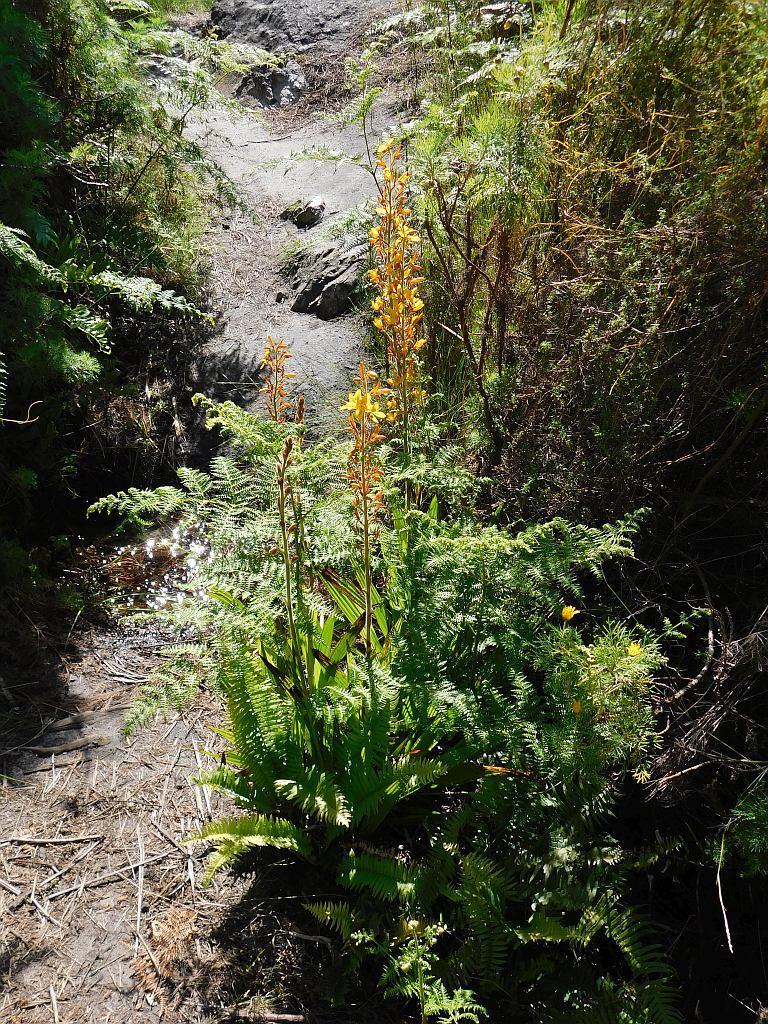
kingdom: Plantae
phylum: Tracheophyta
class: Liliopsida
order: Commelinales
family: Haemodoraceae
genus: Wachendorfia
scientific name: Wachendorfia thyrsiflora
